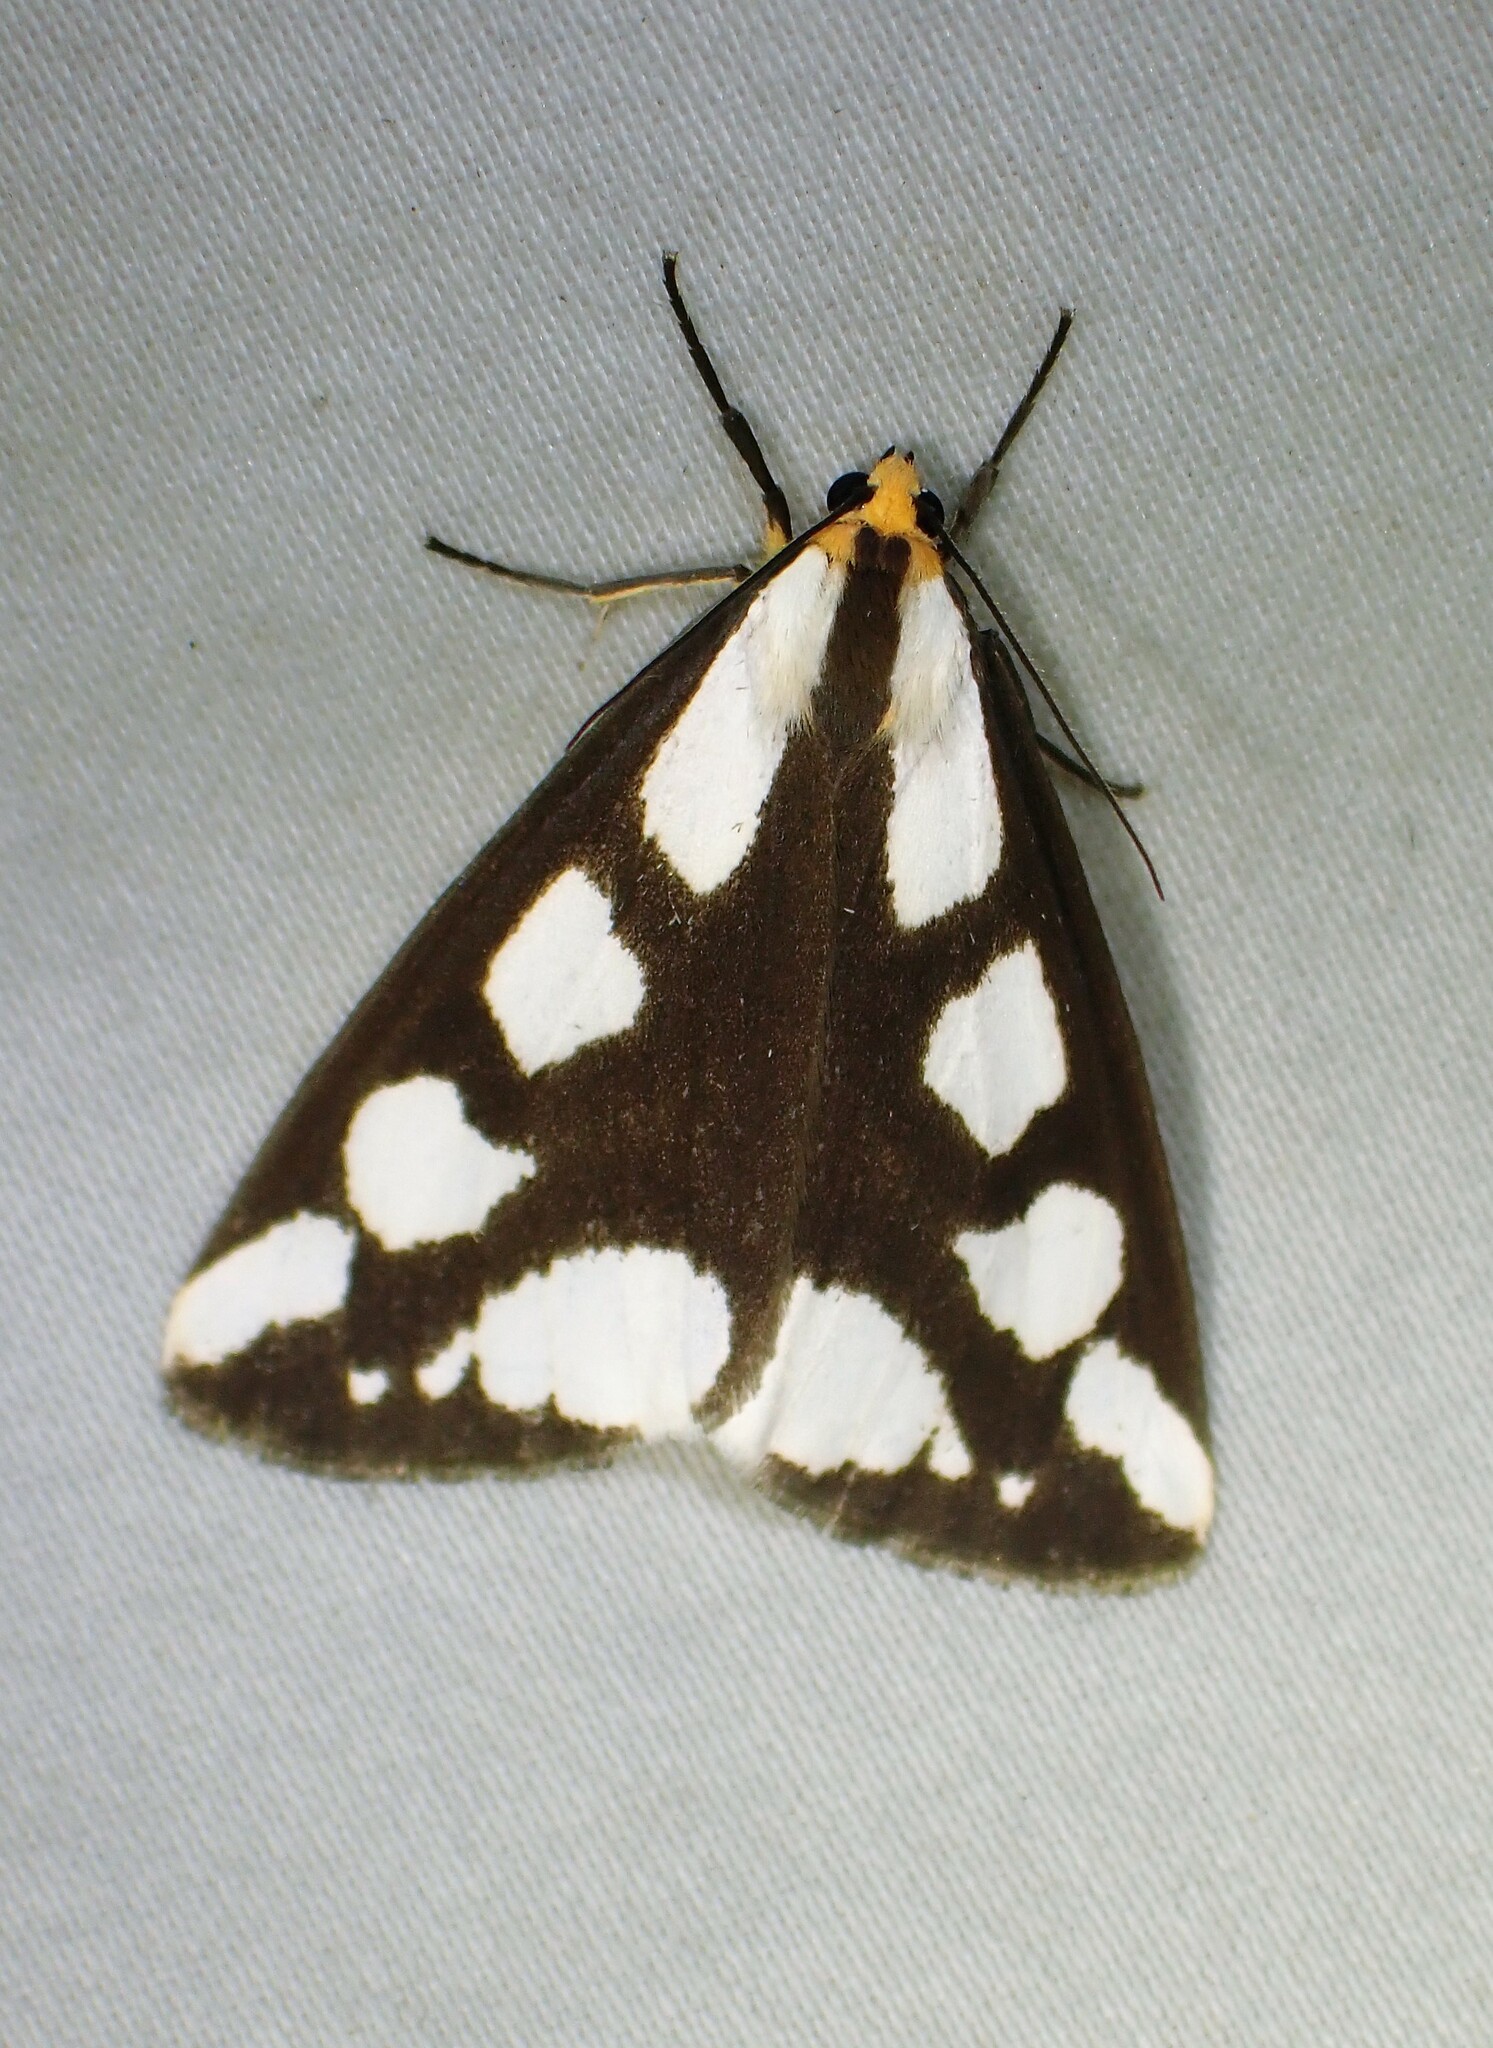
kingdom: Animalia
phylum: Arthropoda
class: Insecta
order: Lepidoptera
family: Erebidae
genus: Haploa
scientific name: Haploa lecontei
